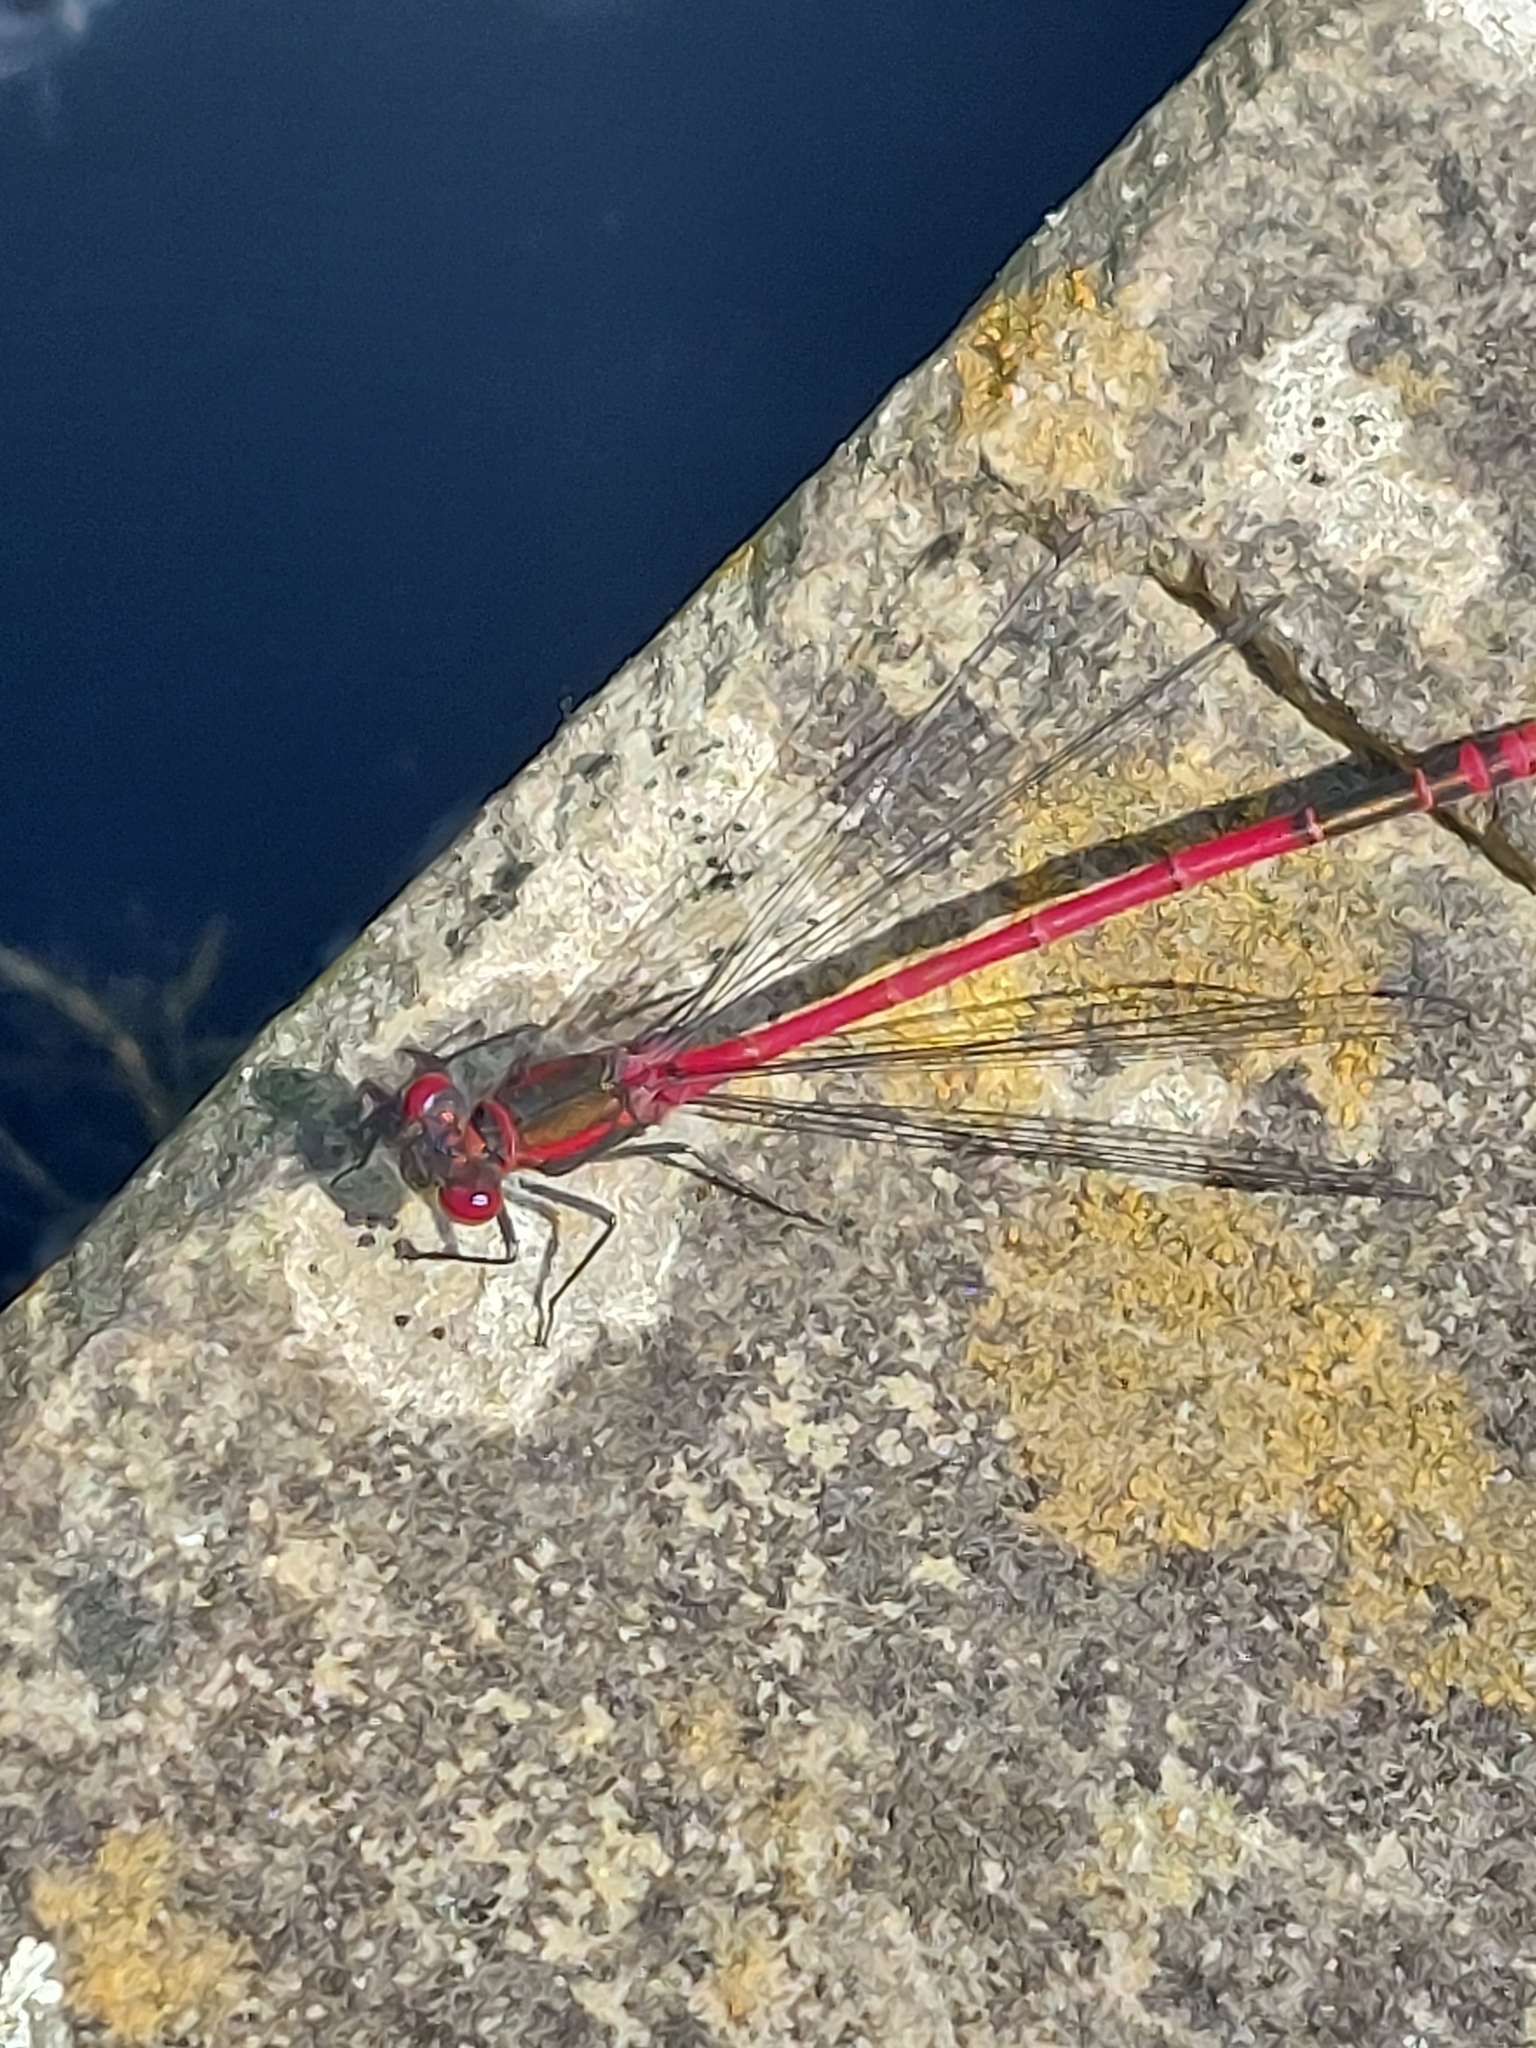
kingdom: Animalia
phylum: Arthropoda
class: Insecta
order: Odonata
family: Coenagrionidae
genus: Pyrrhosoma
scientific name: Pyrrhosoma nymphula
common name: Large red damsel
